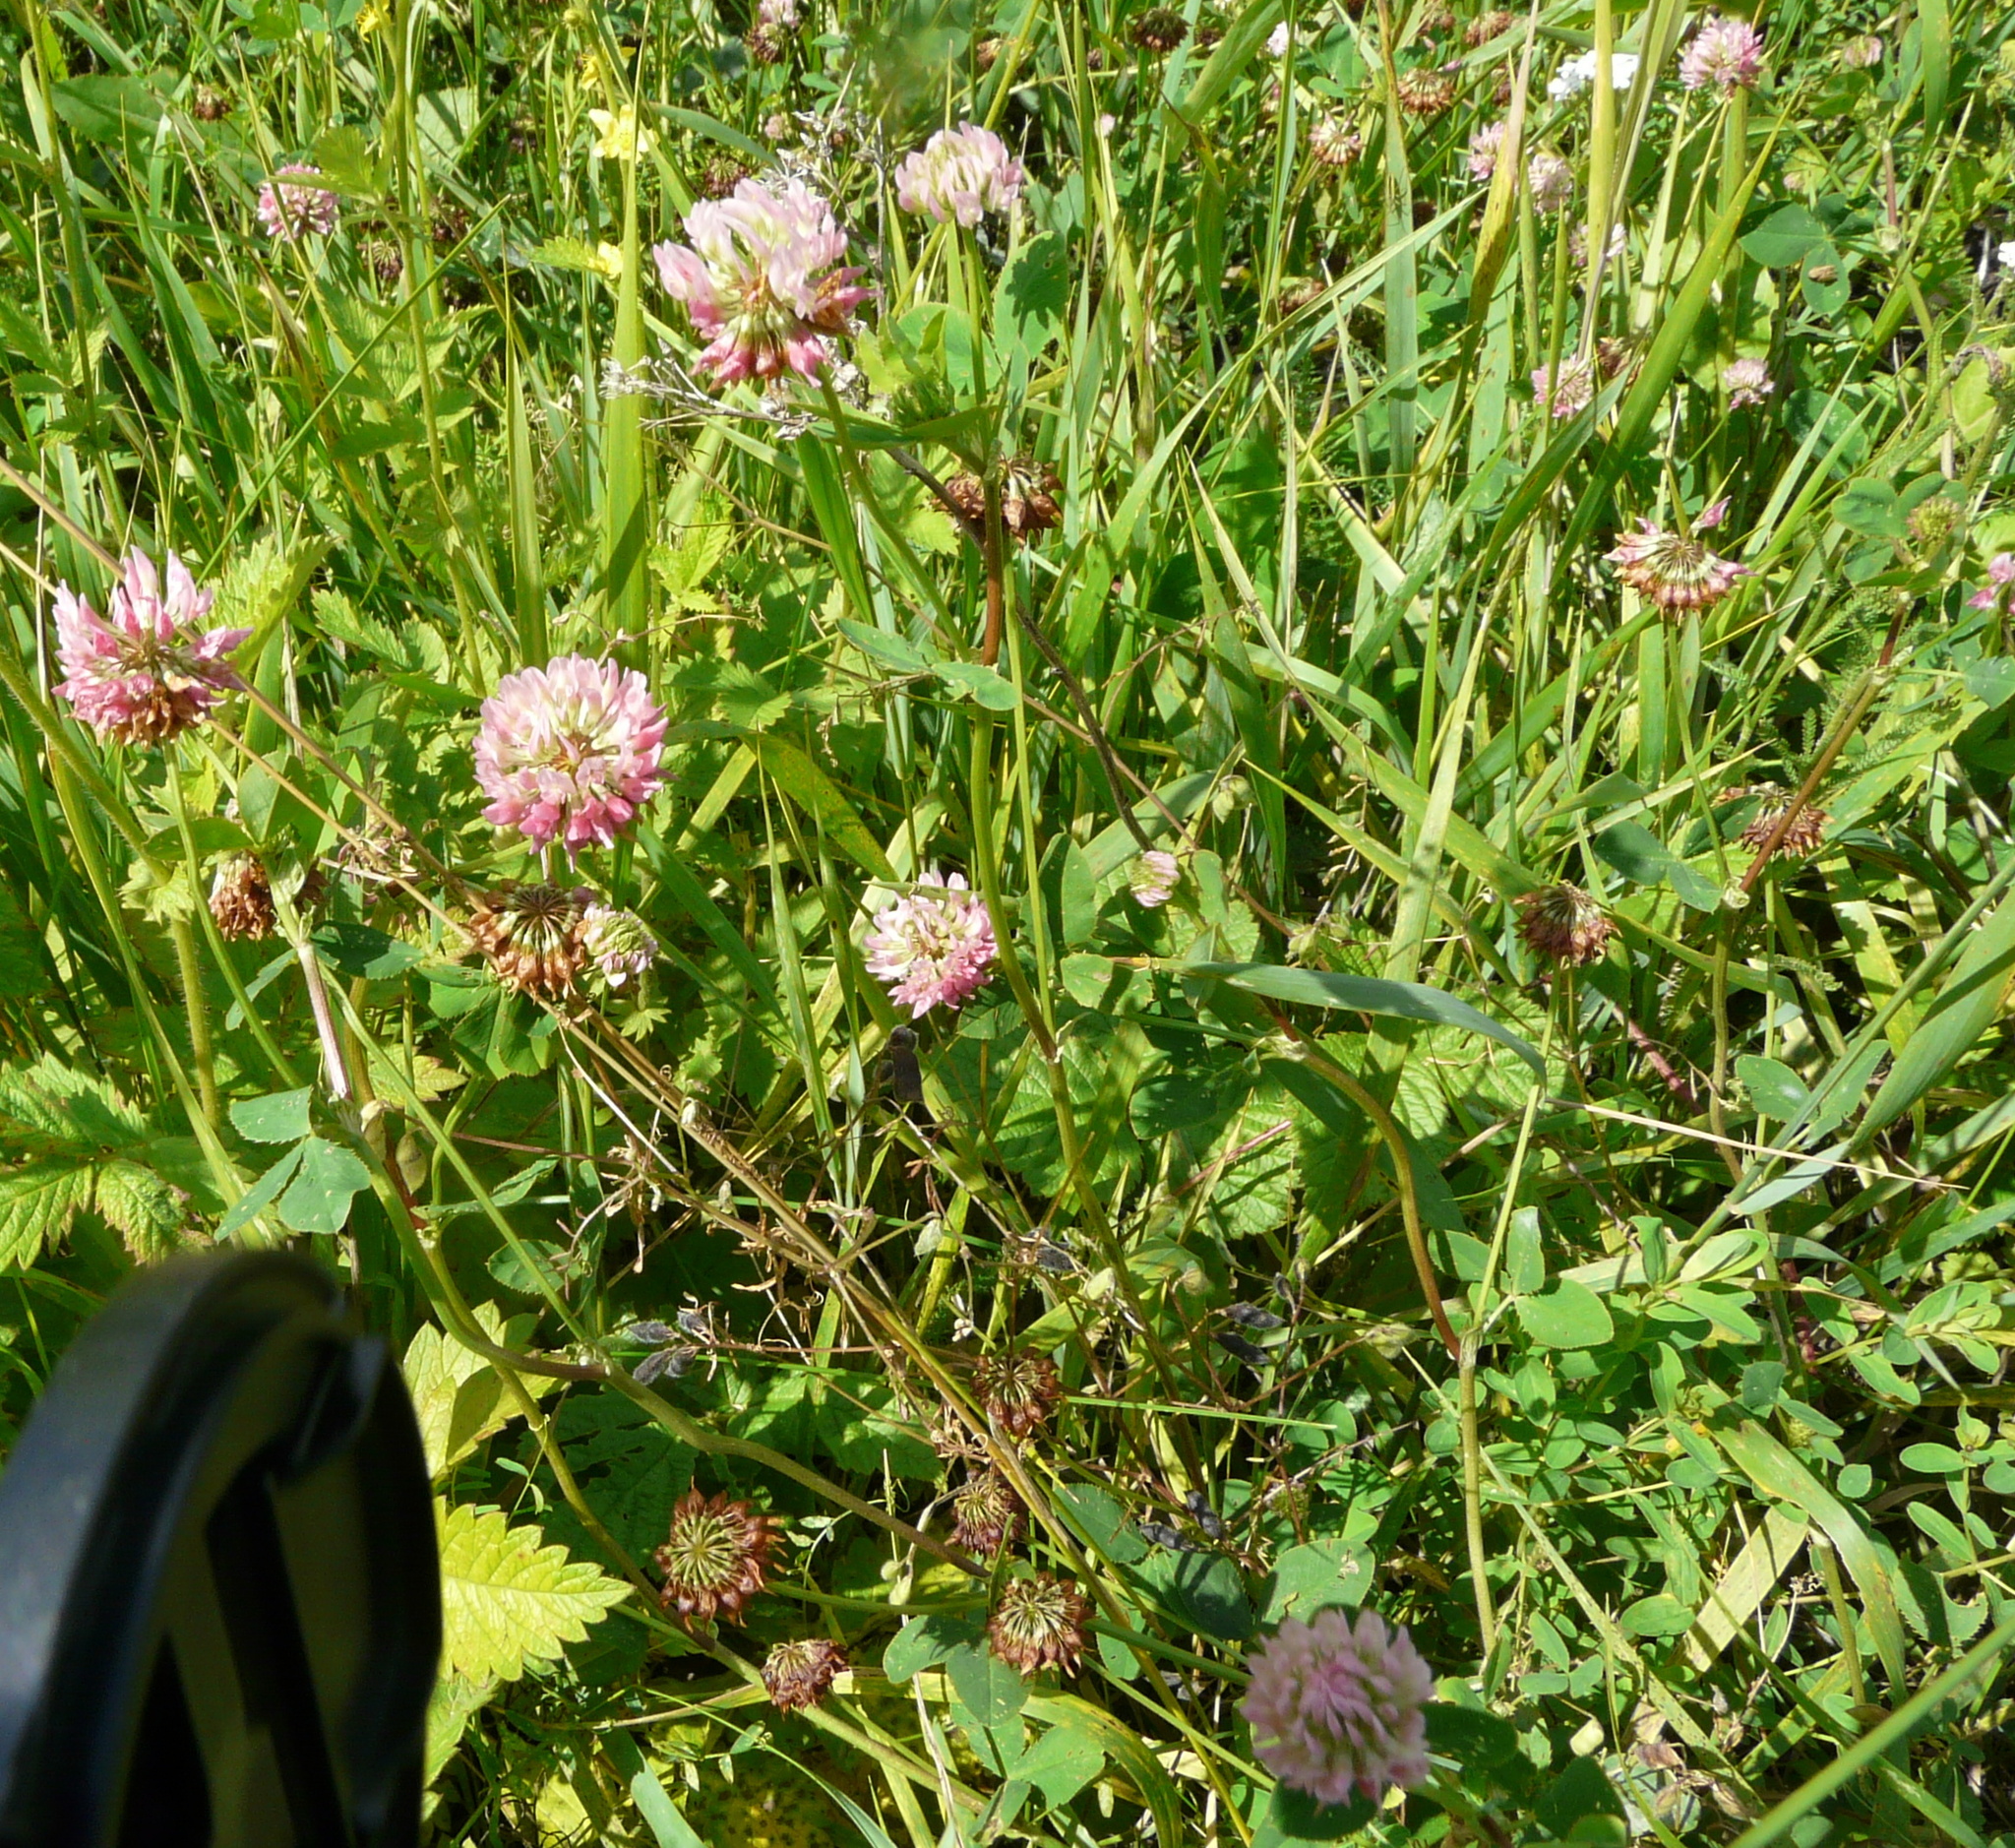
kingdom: Plantae
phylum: Tracheophyta
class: Magnoliopsida
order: Fabales
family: Fabaceae
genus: Trifolium
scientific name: Trifolium hybridum
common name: Alsike clover
